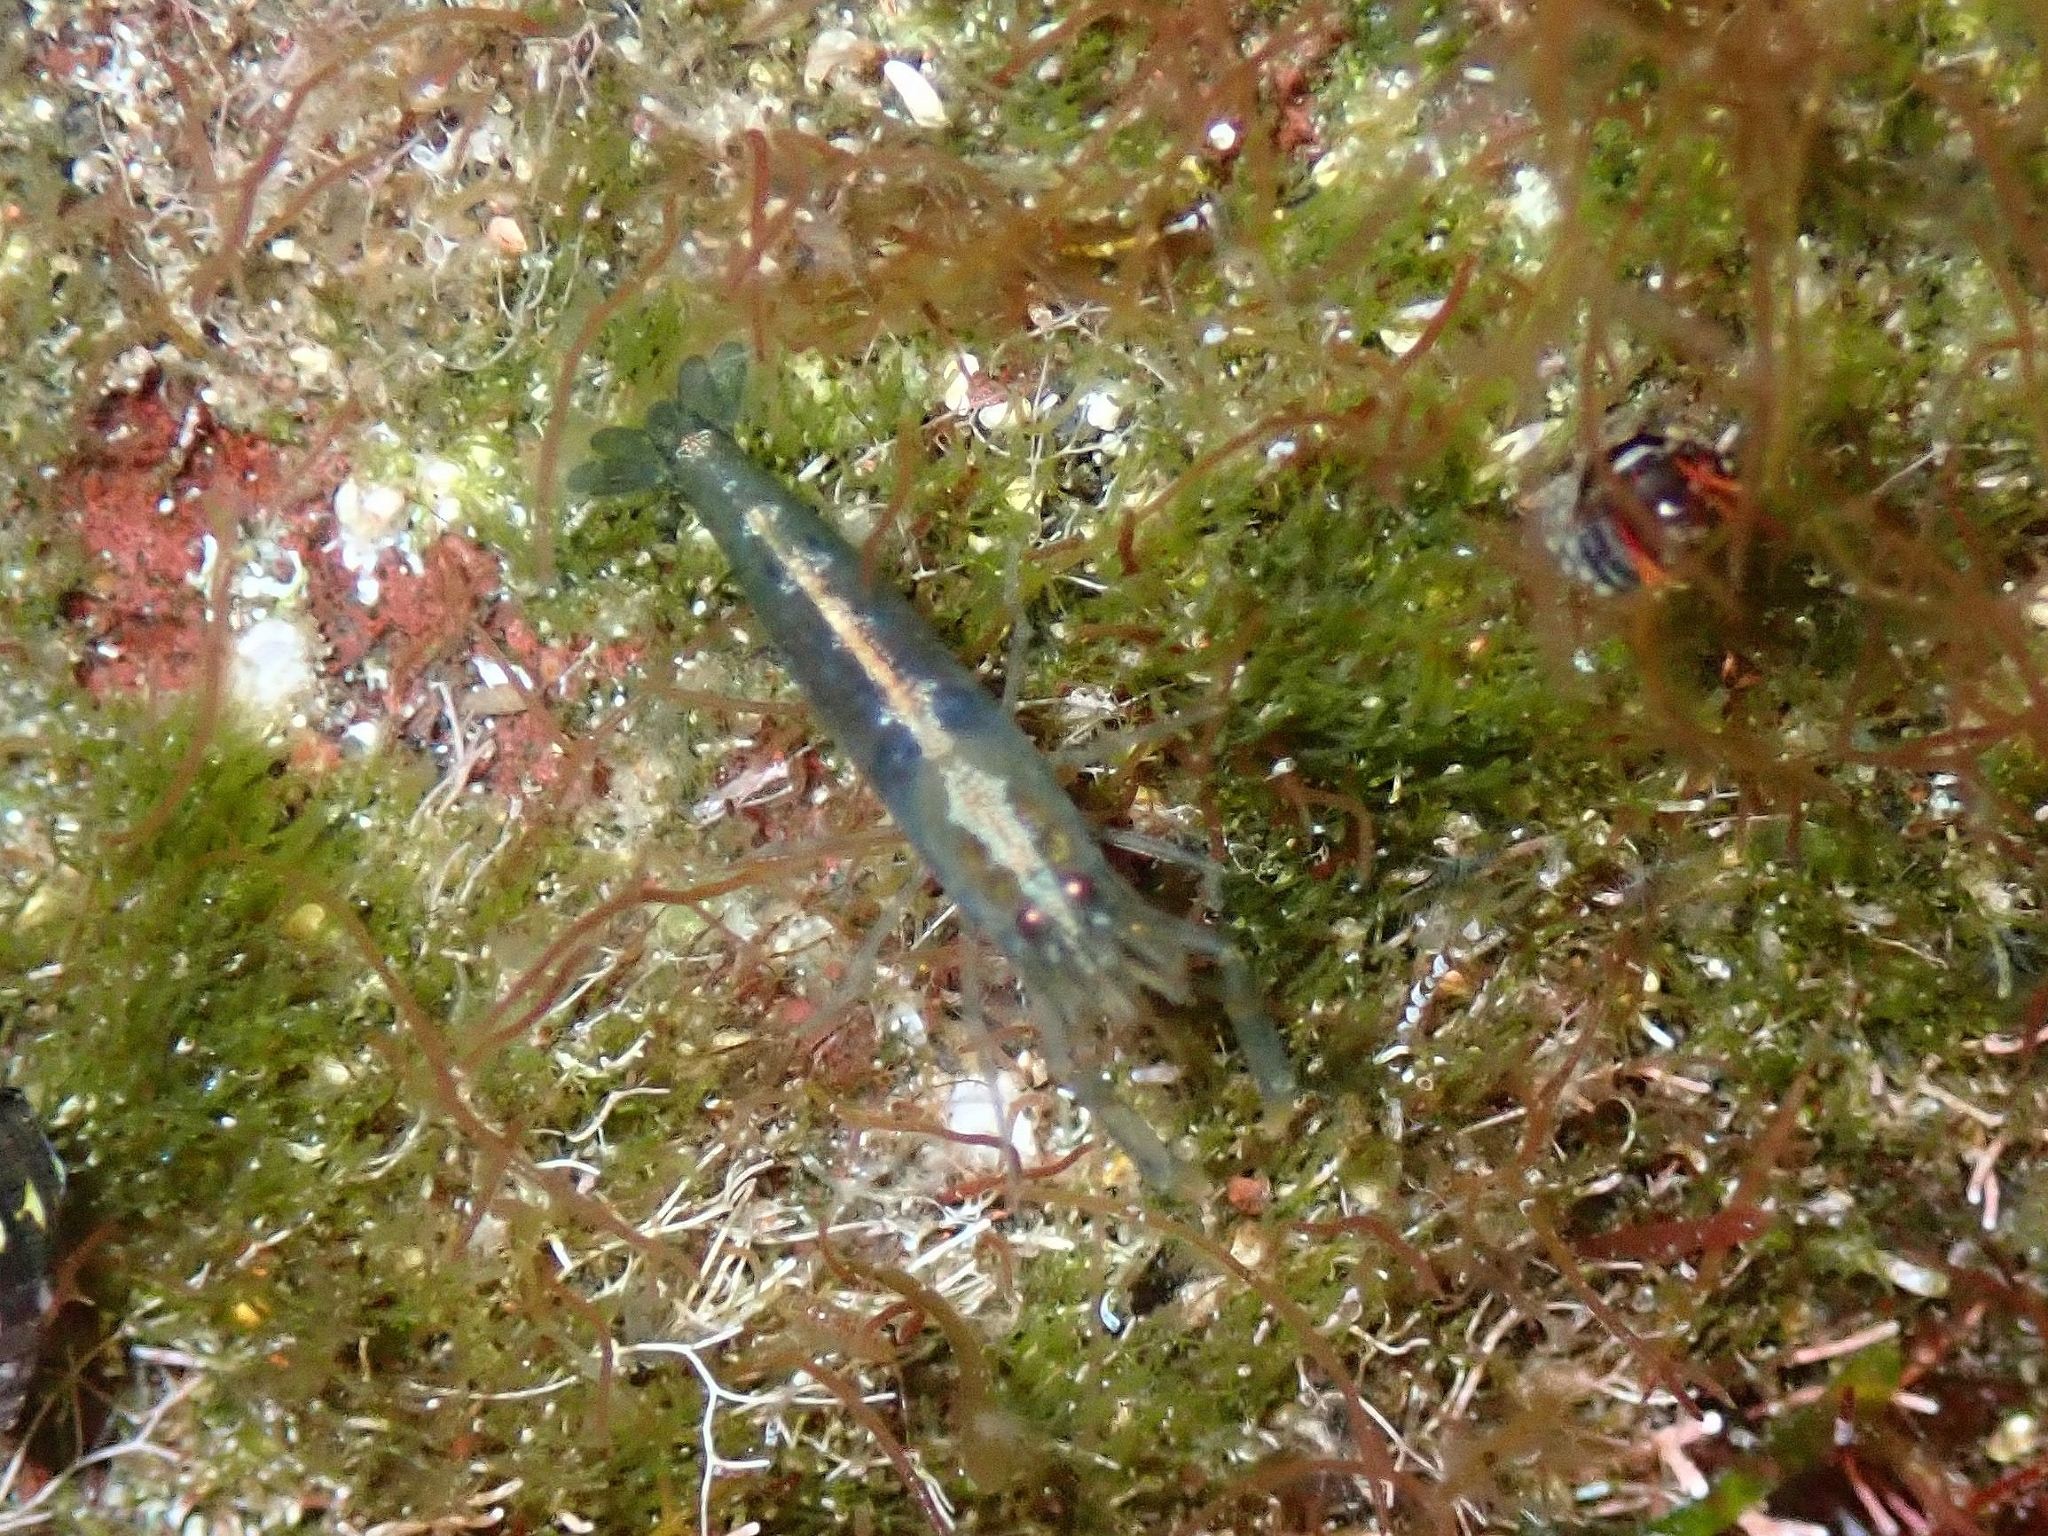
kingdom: Animalia
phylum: Arthropoda
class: Malacostraca
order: Decapoda
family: Alpheidae
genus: Athanas
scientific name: Athanas nitescens
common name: Hooded shrimp
